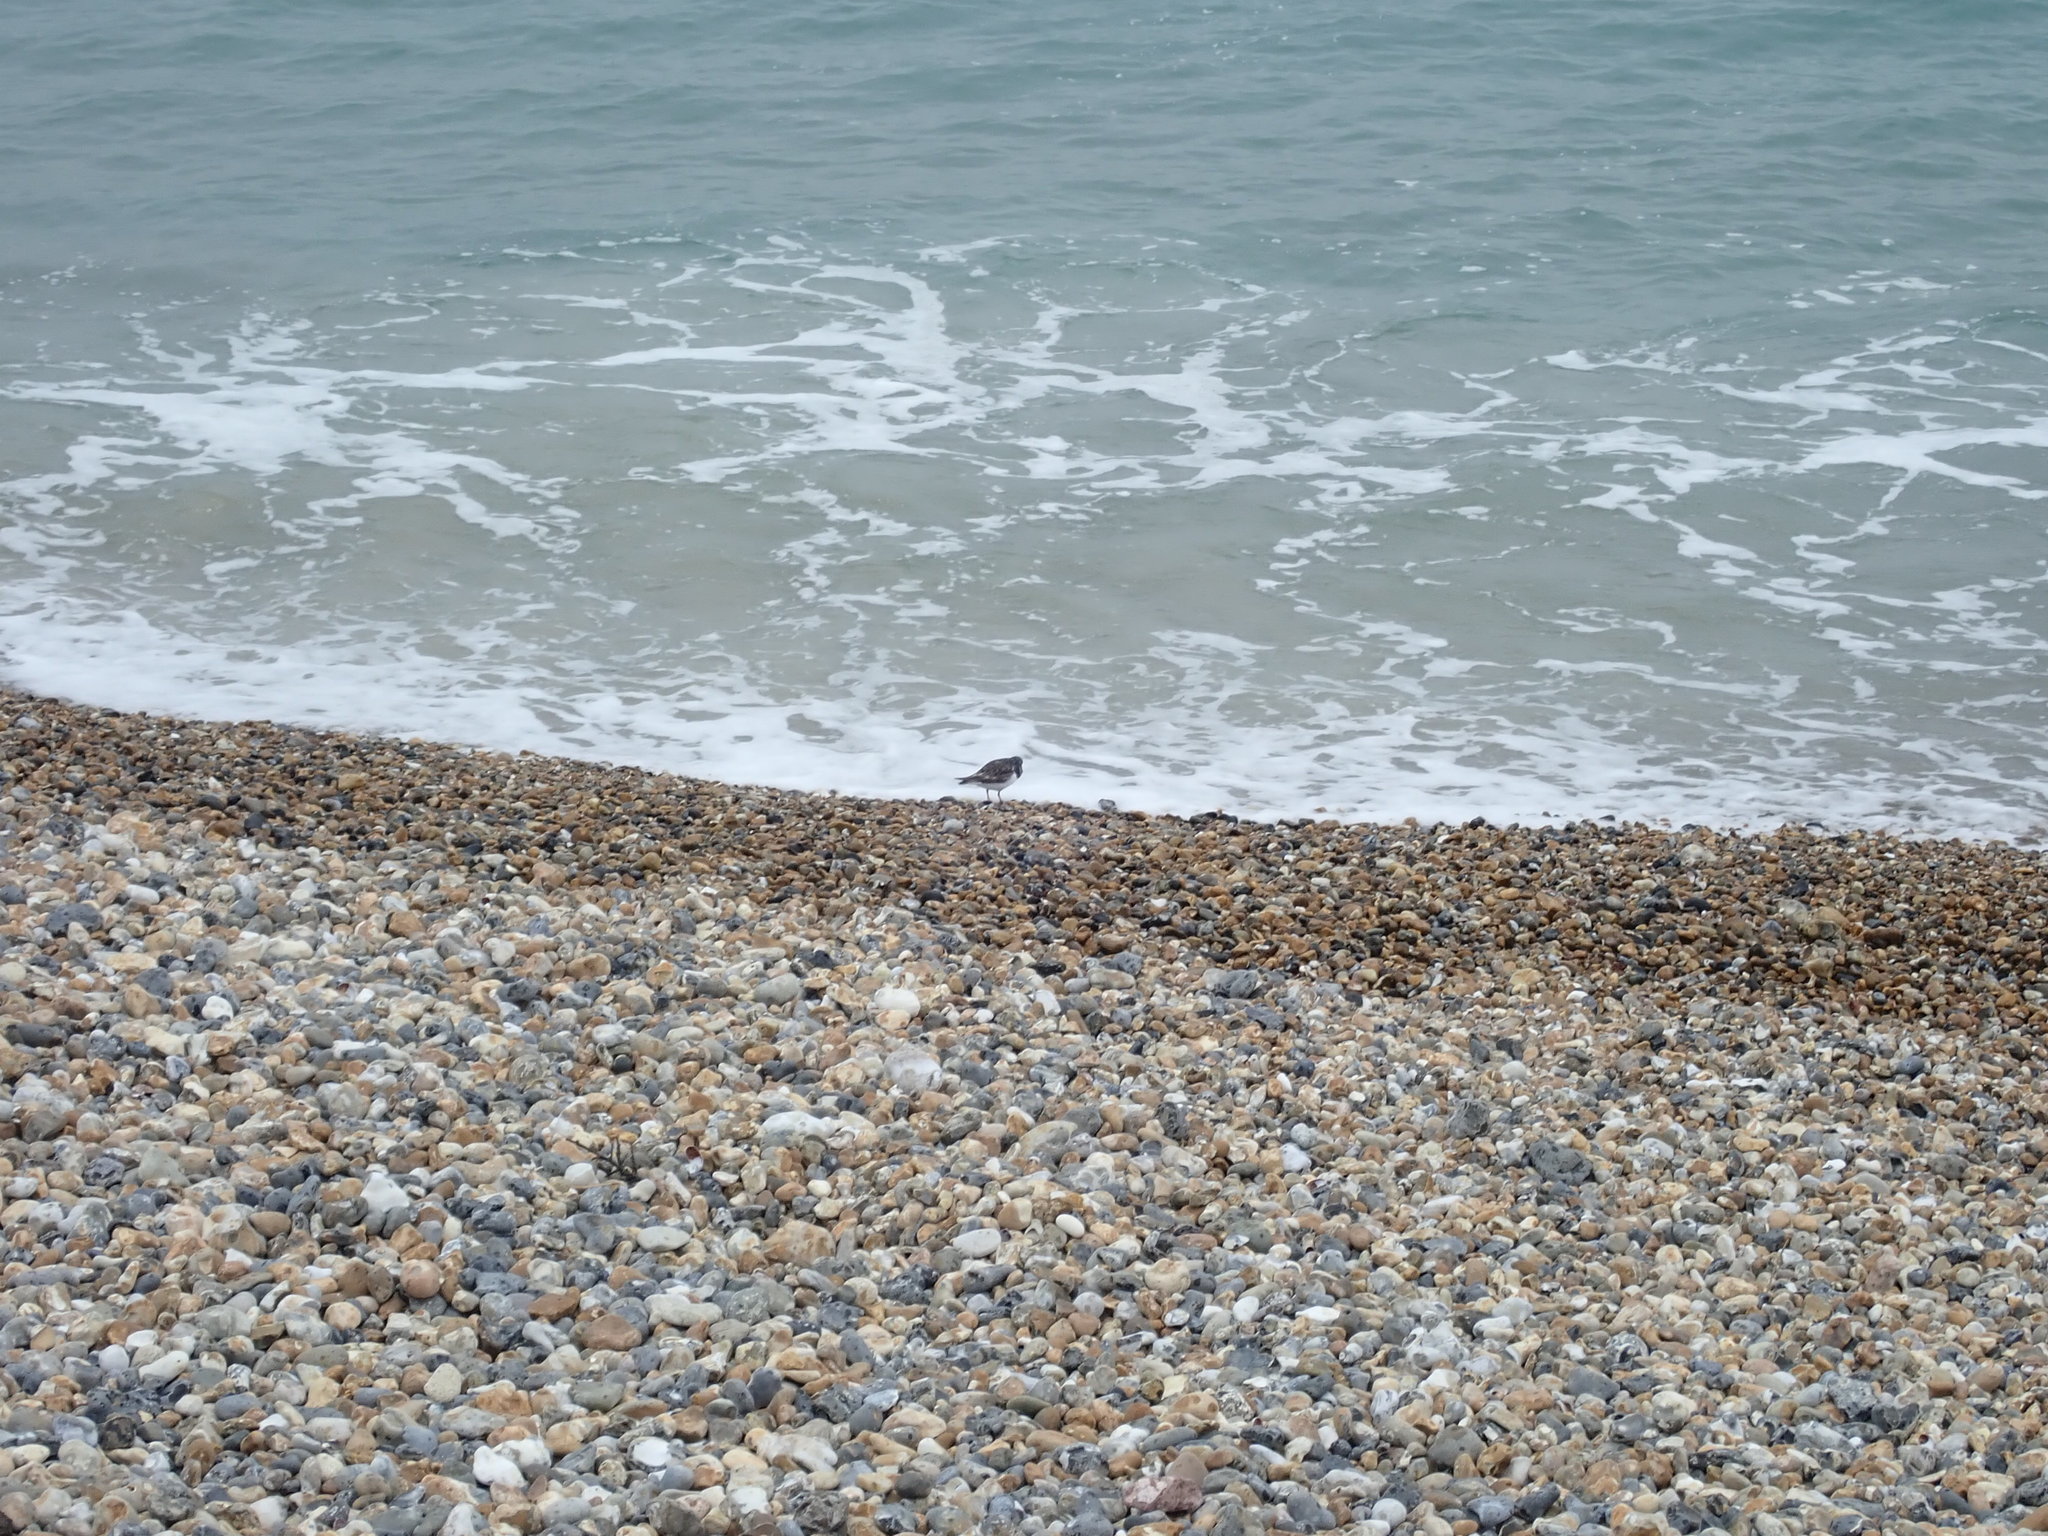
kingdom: Animalia
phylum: Chordata
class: Aves
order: Charadriiformes
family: Scolopacidae
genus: Arenaria
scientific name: Arenaria interpres
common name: Ruddy turnstone
